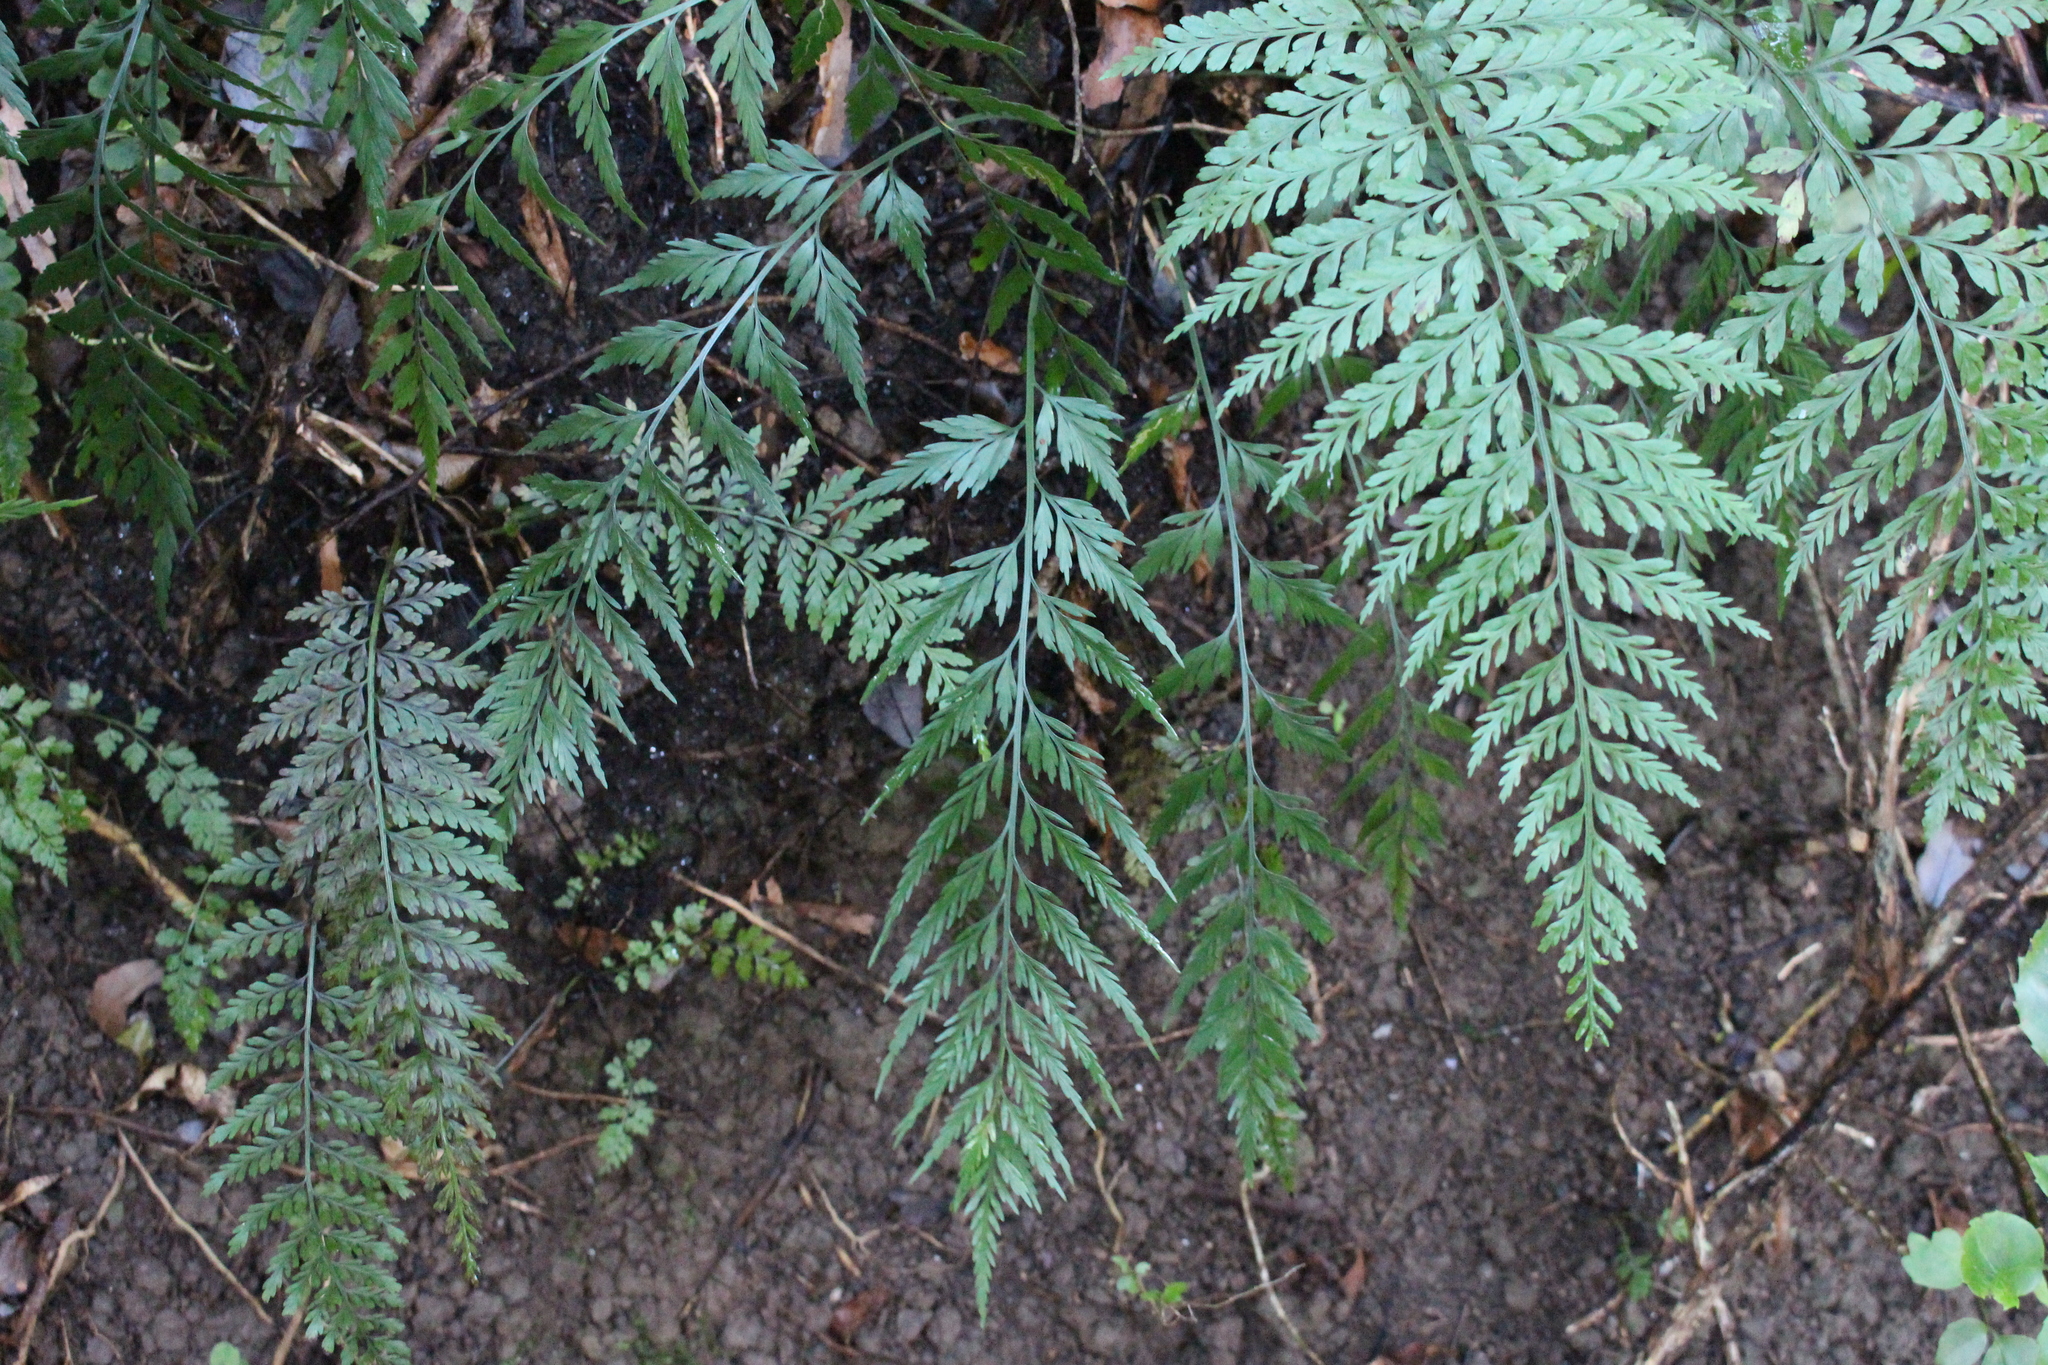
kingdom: Plantae
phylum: Tracheophyta
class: Polypodiopsida
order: Polypodiales
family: Aspleniaceae
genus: Asplenium
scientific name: Asplenium appendiculatum
